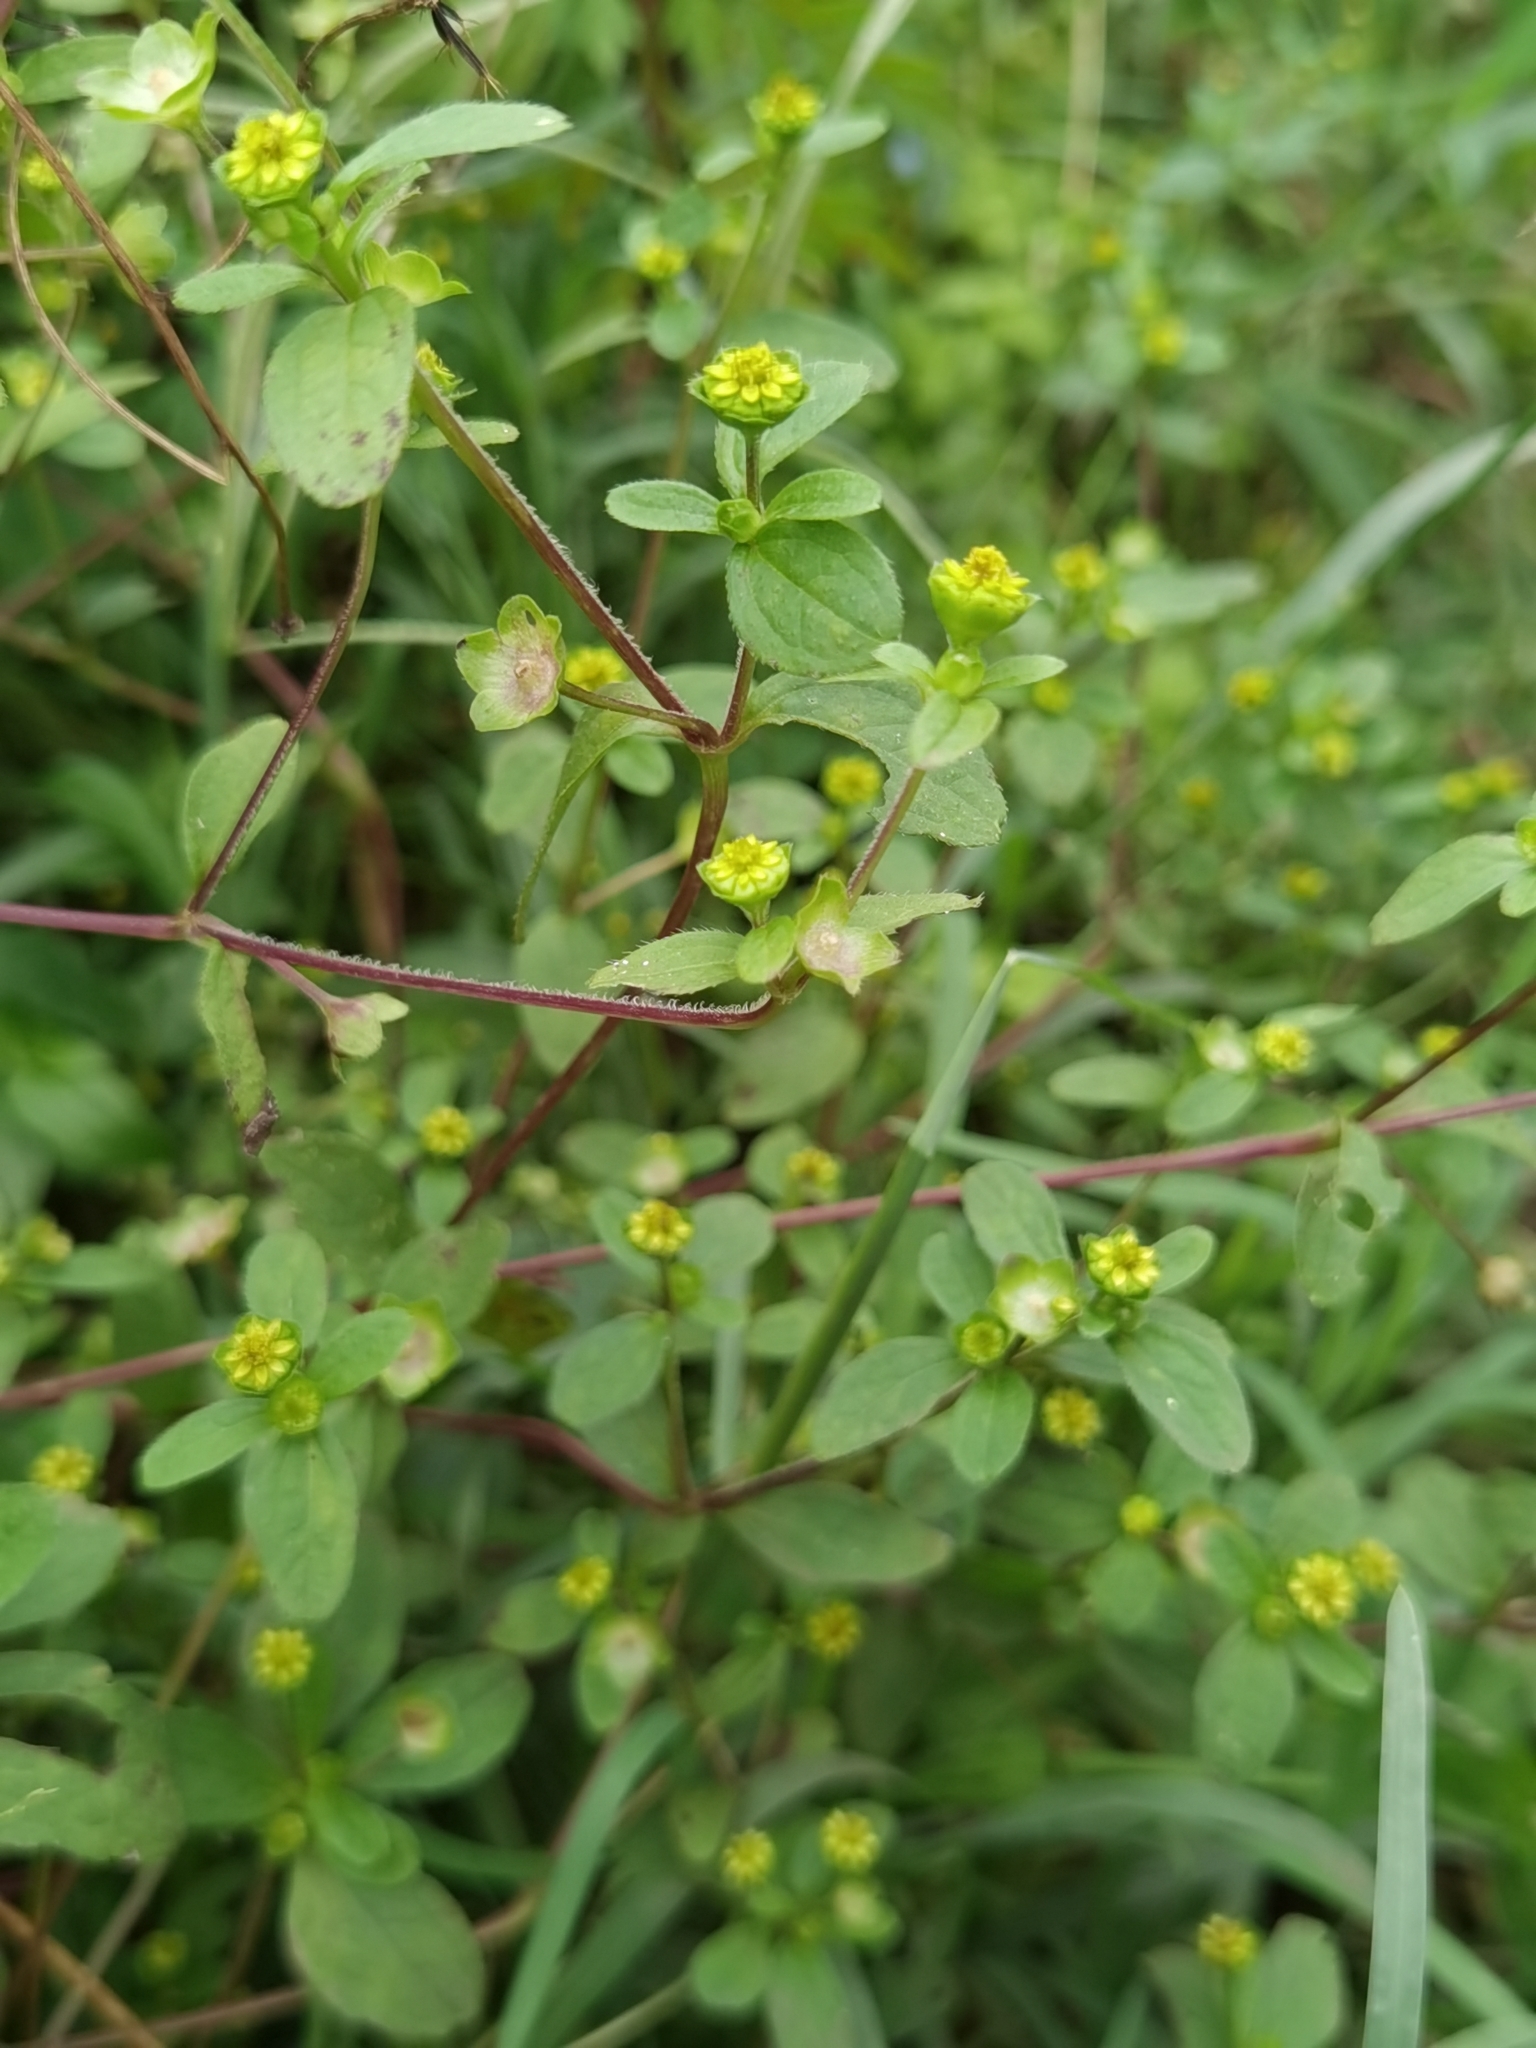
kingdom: Plantae
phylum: Tracheophyta
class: Magnoliopsida
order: Asterales
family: Asteraceae
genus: Melampodium
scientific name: Melampodium costaricense
